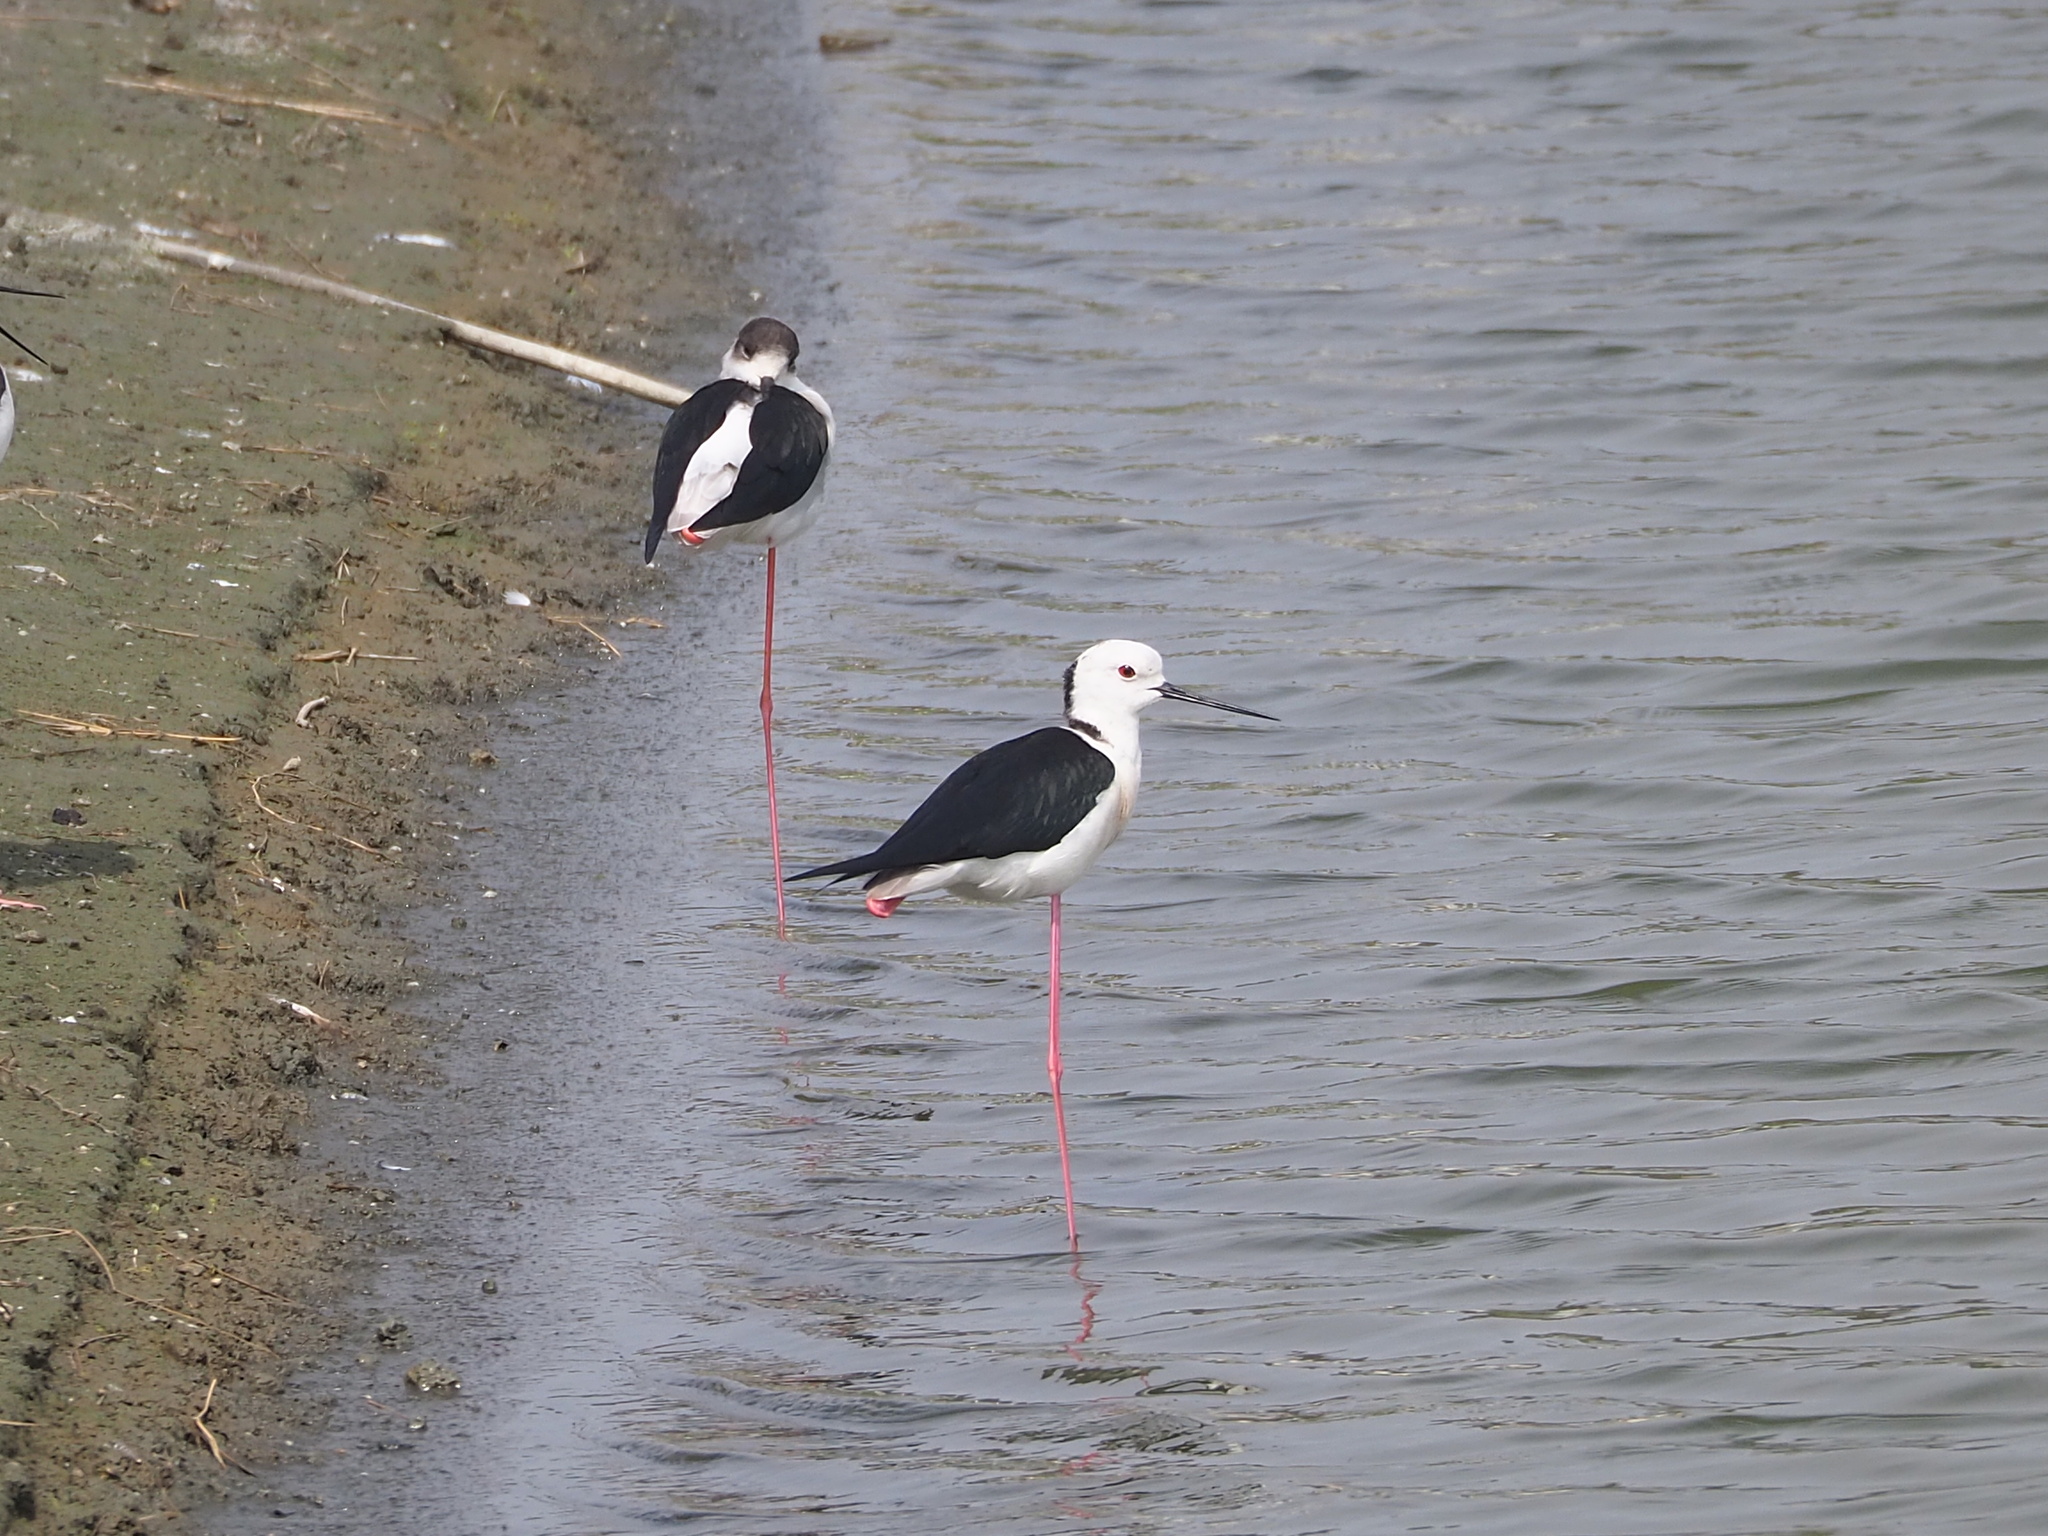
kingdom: Animalia
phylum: Chordata
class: Aves
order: Charadriiformes
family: Recurvirostridae
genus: Himantopus
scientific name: Himantopus himantopus
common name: Black-winged stilt
